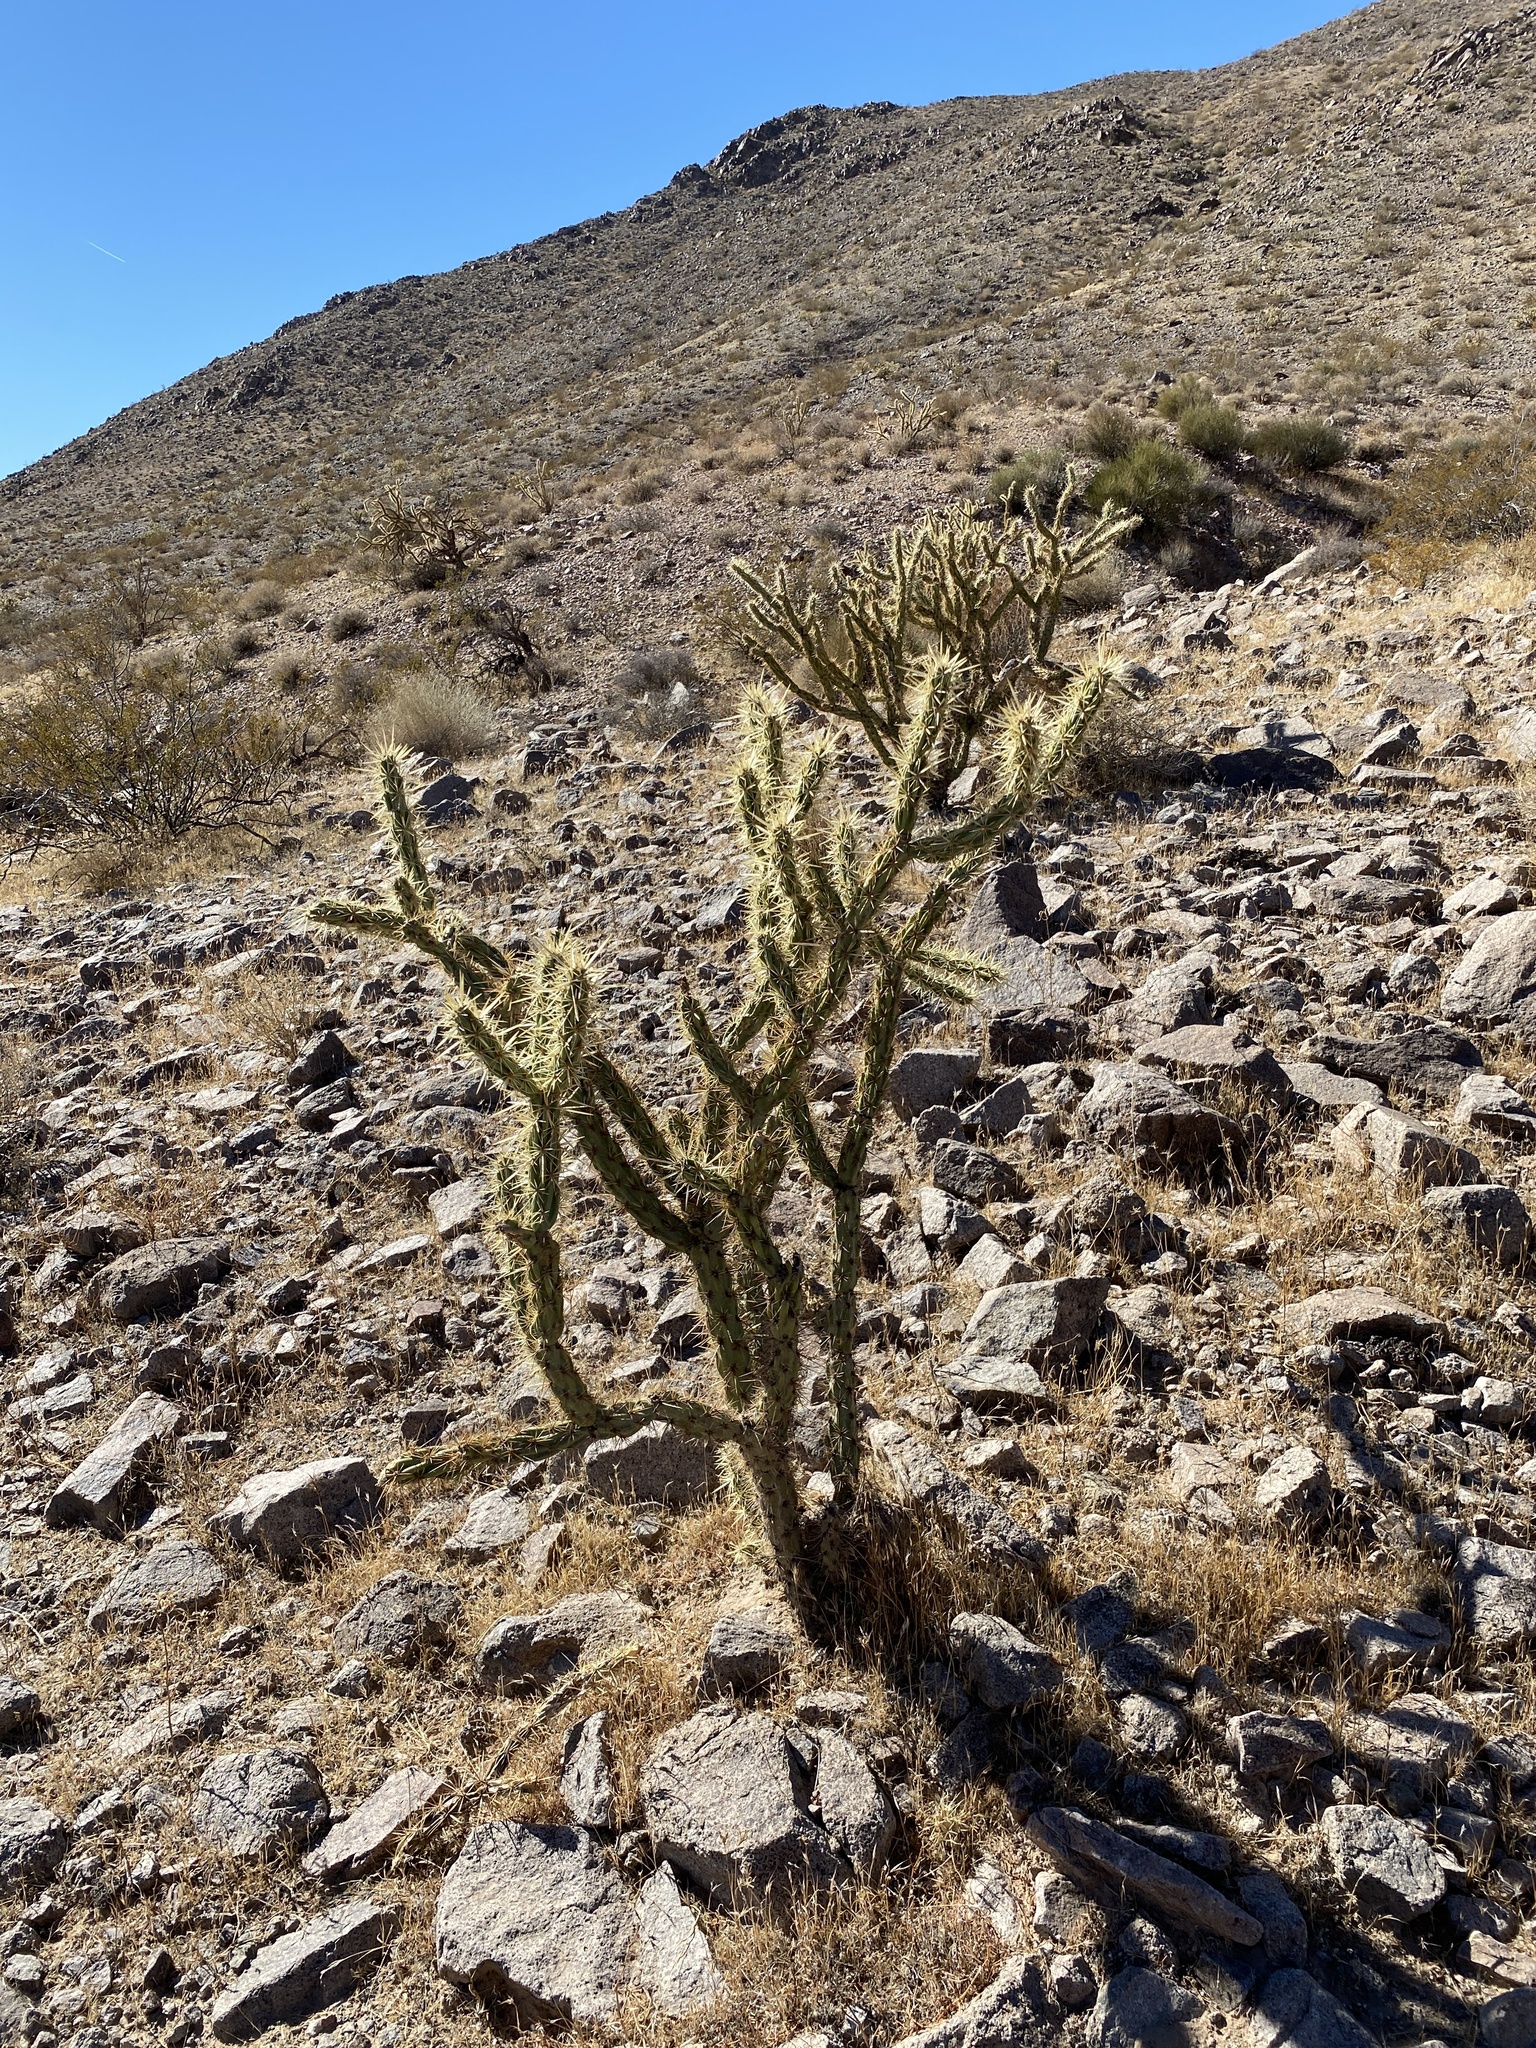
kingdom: Plantae
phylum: Tracheophyta
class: Magnoliopsida
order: Caryophyllales
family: Cactaceae
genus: Cylindropuntia
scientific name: Cylindropuntia acanthocarpa
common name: Buckhorn cholla
